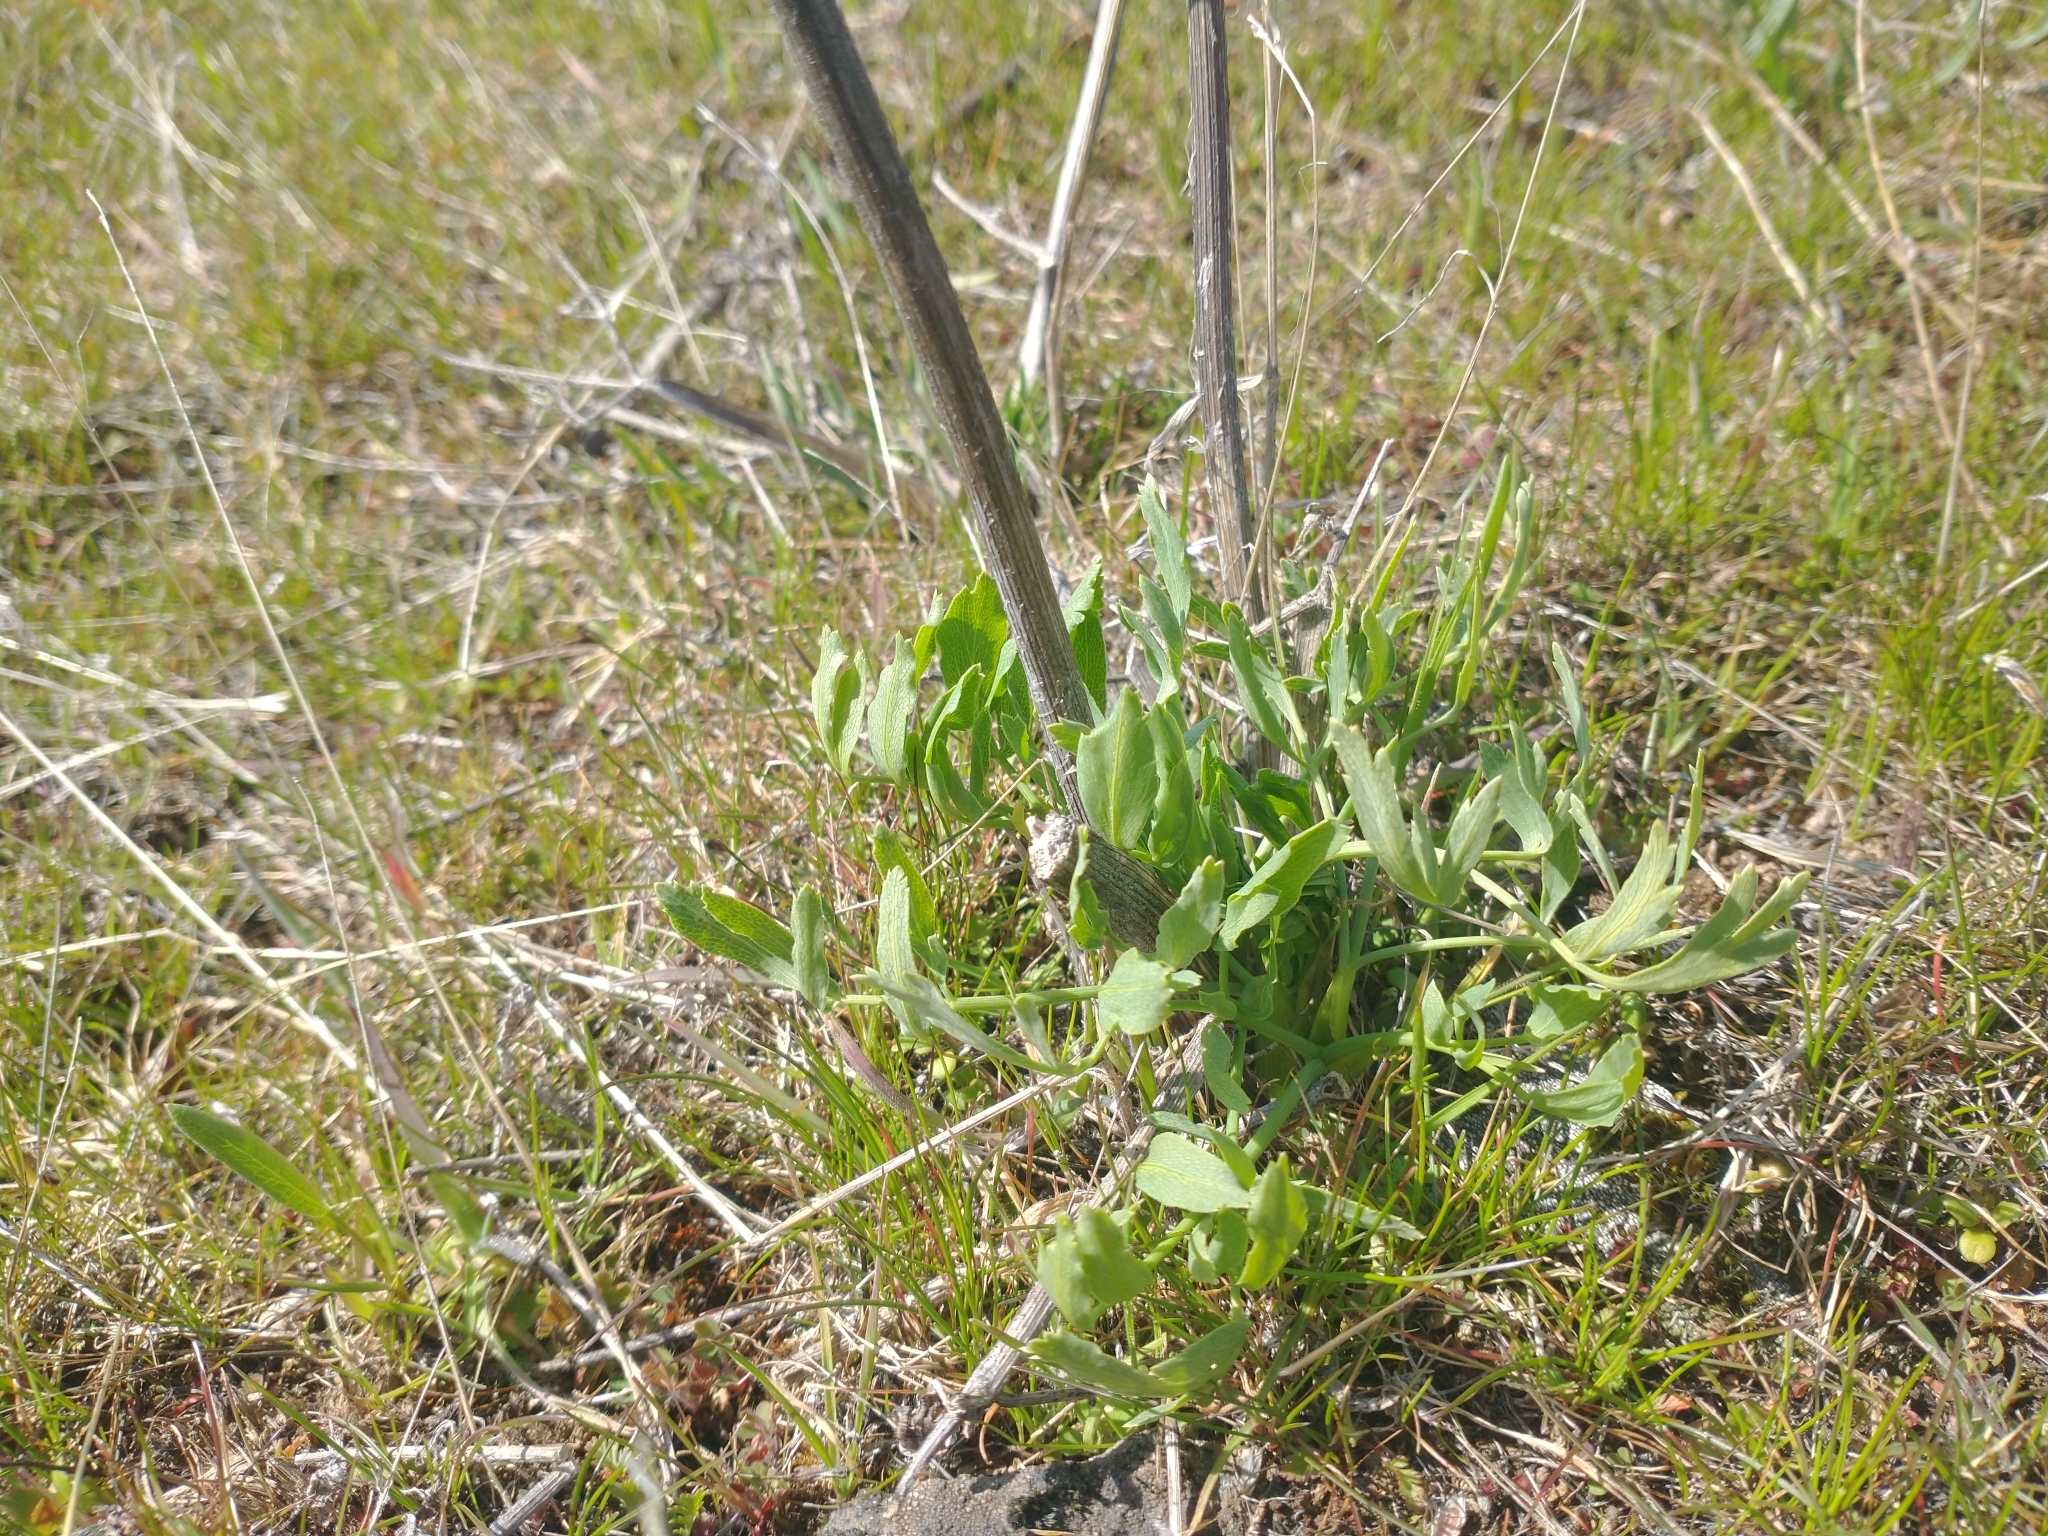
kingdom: Plantae
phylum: Tracheophyta
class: Magnoliopsida
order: Apiales
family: Apiaceae
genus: Lomatium
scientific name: Lomatium nudicaule
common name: Pestle lomatium
